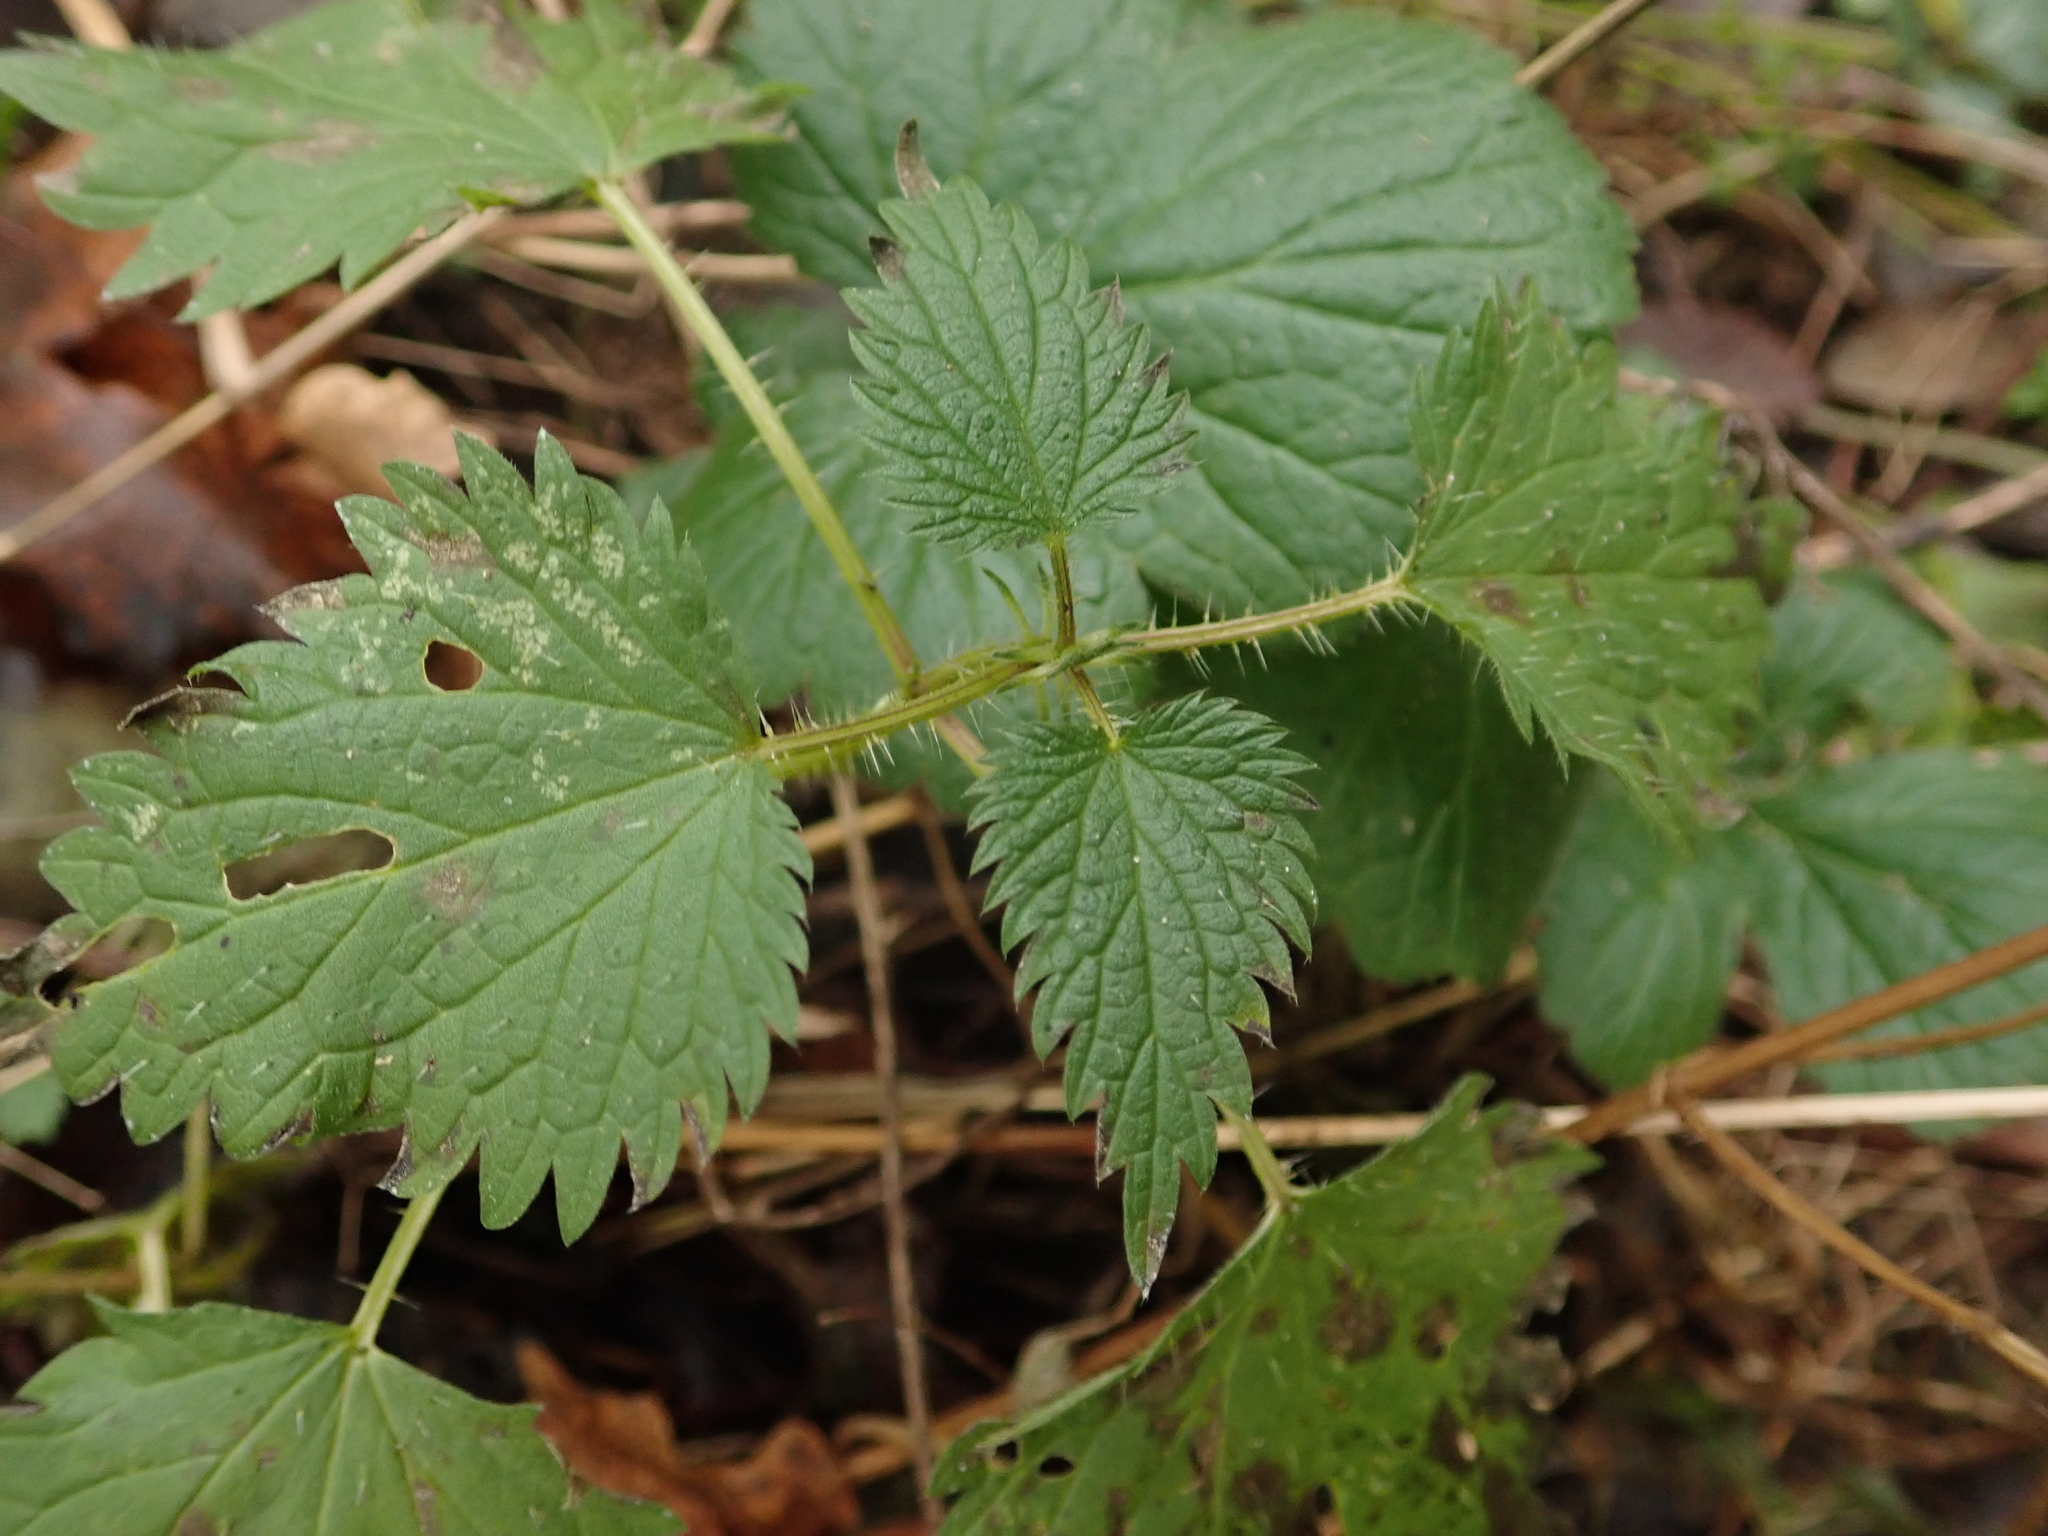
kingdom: Plantae
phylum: Tracheophyta
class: Magnoliopsida
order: Rosales
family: Urticaceae
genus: Urtica
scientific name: Urtica dioica
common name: Common nettle
